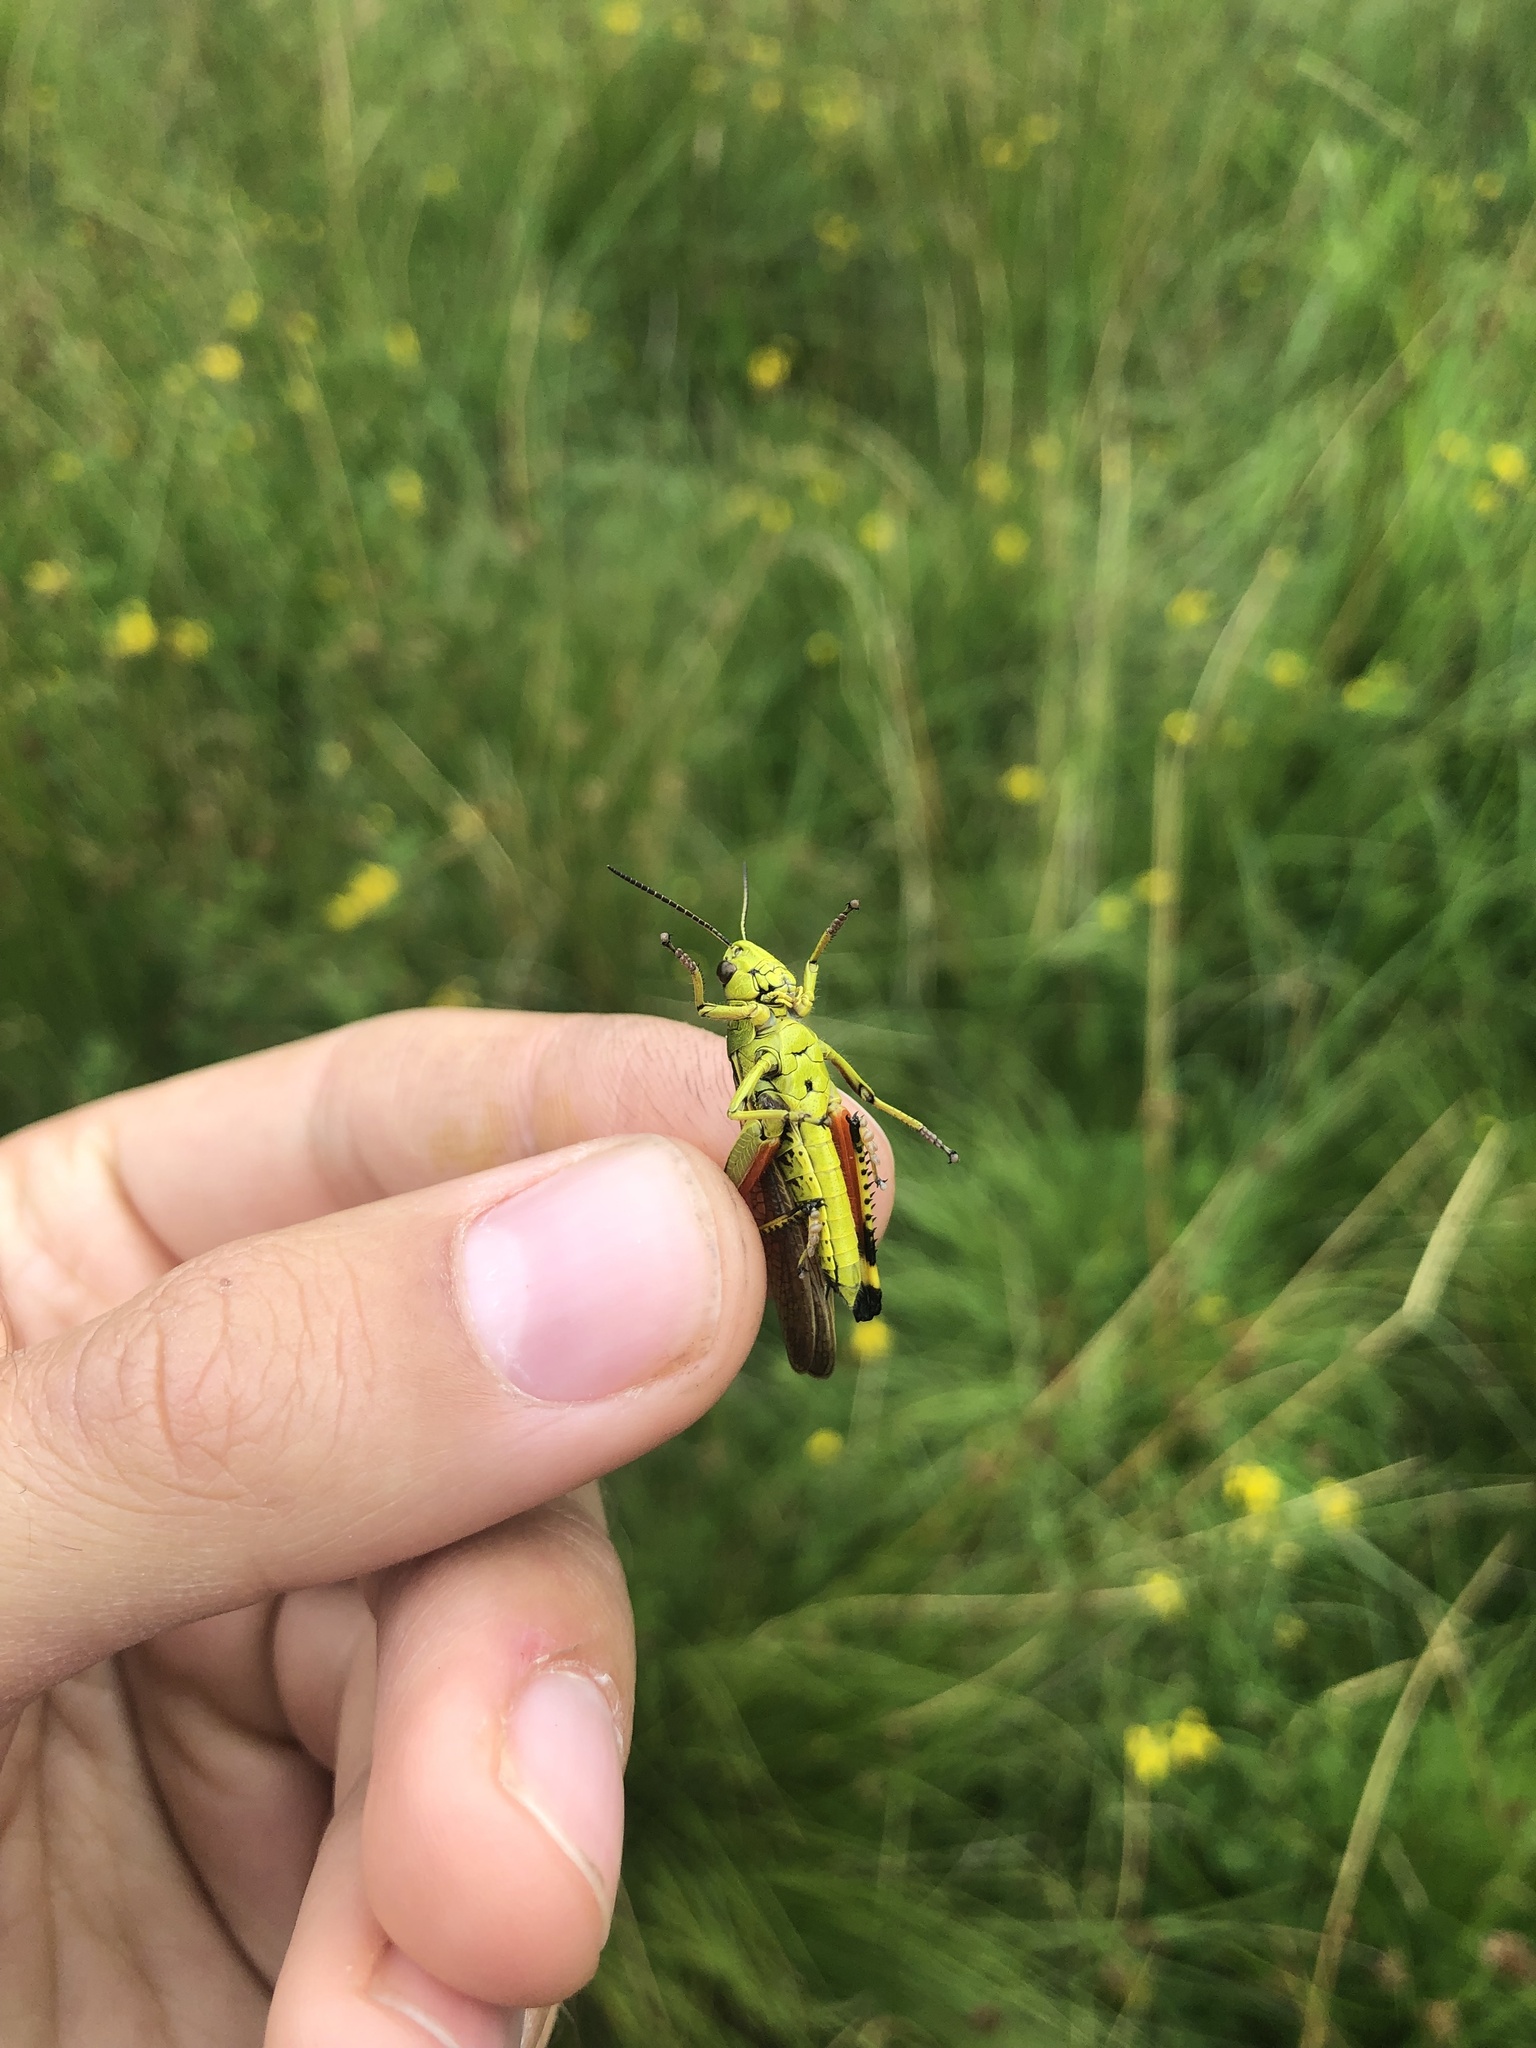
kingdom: Animalia
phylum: Arthropoda
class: Insecta
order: Orthoptera
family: Acrididae
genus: Stethophyma
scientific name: Stethophyma grossum
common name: Large marsh grasshopper
